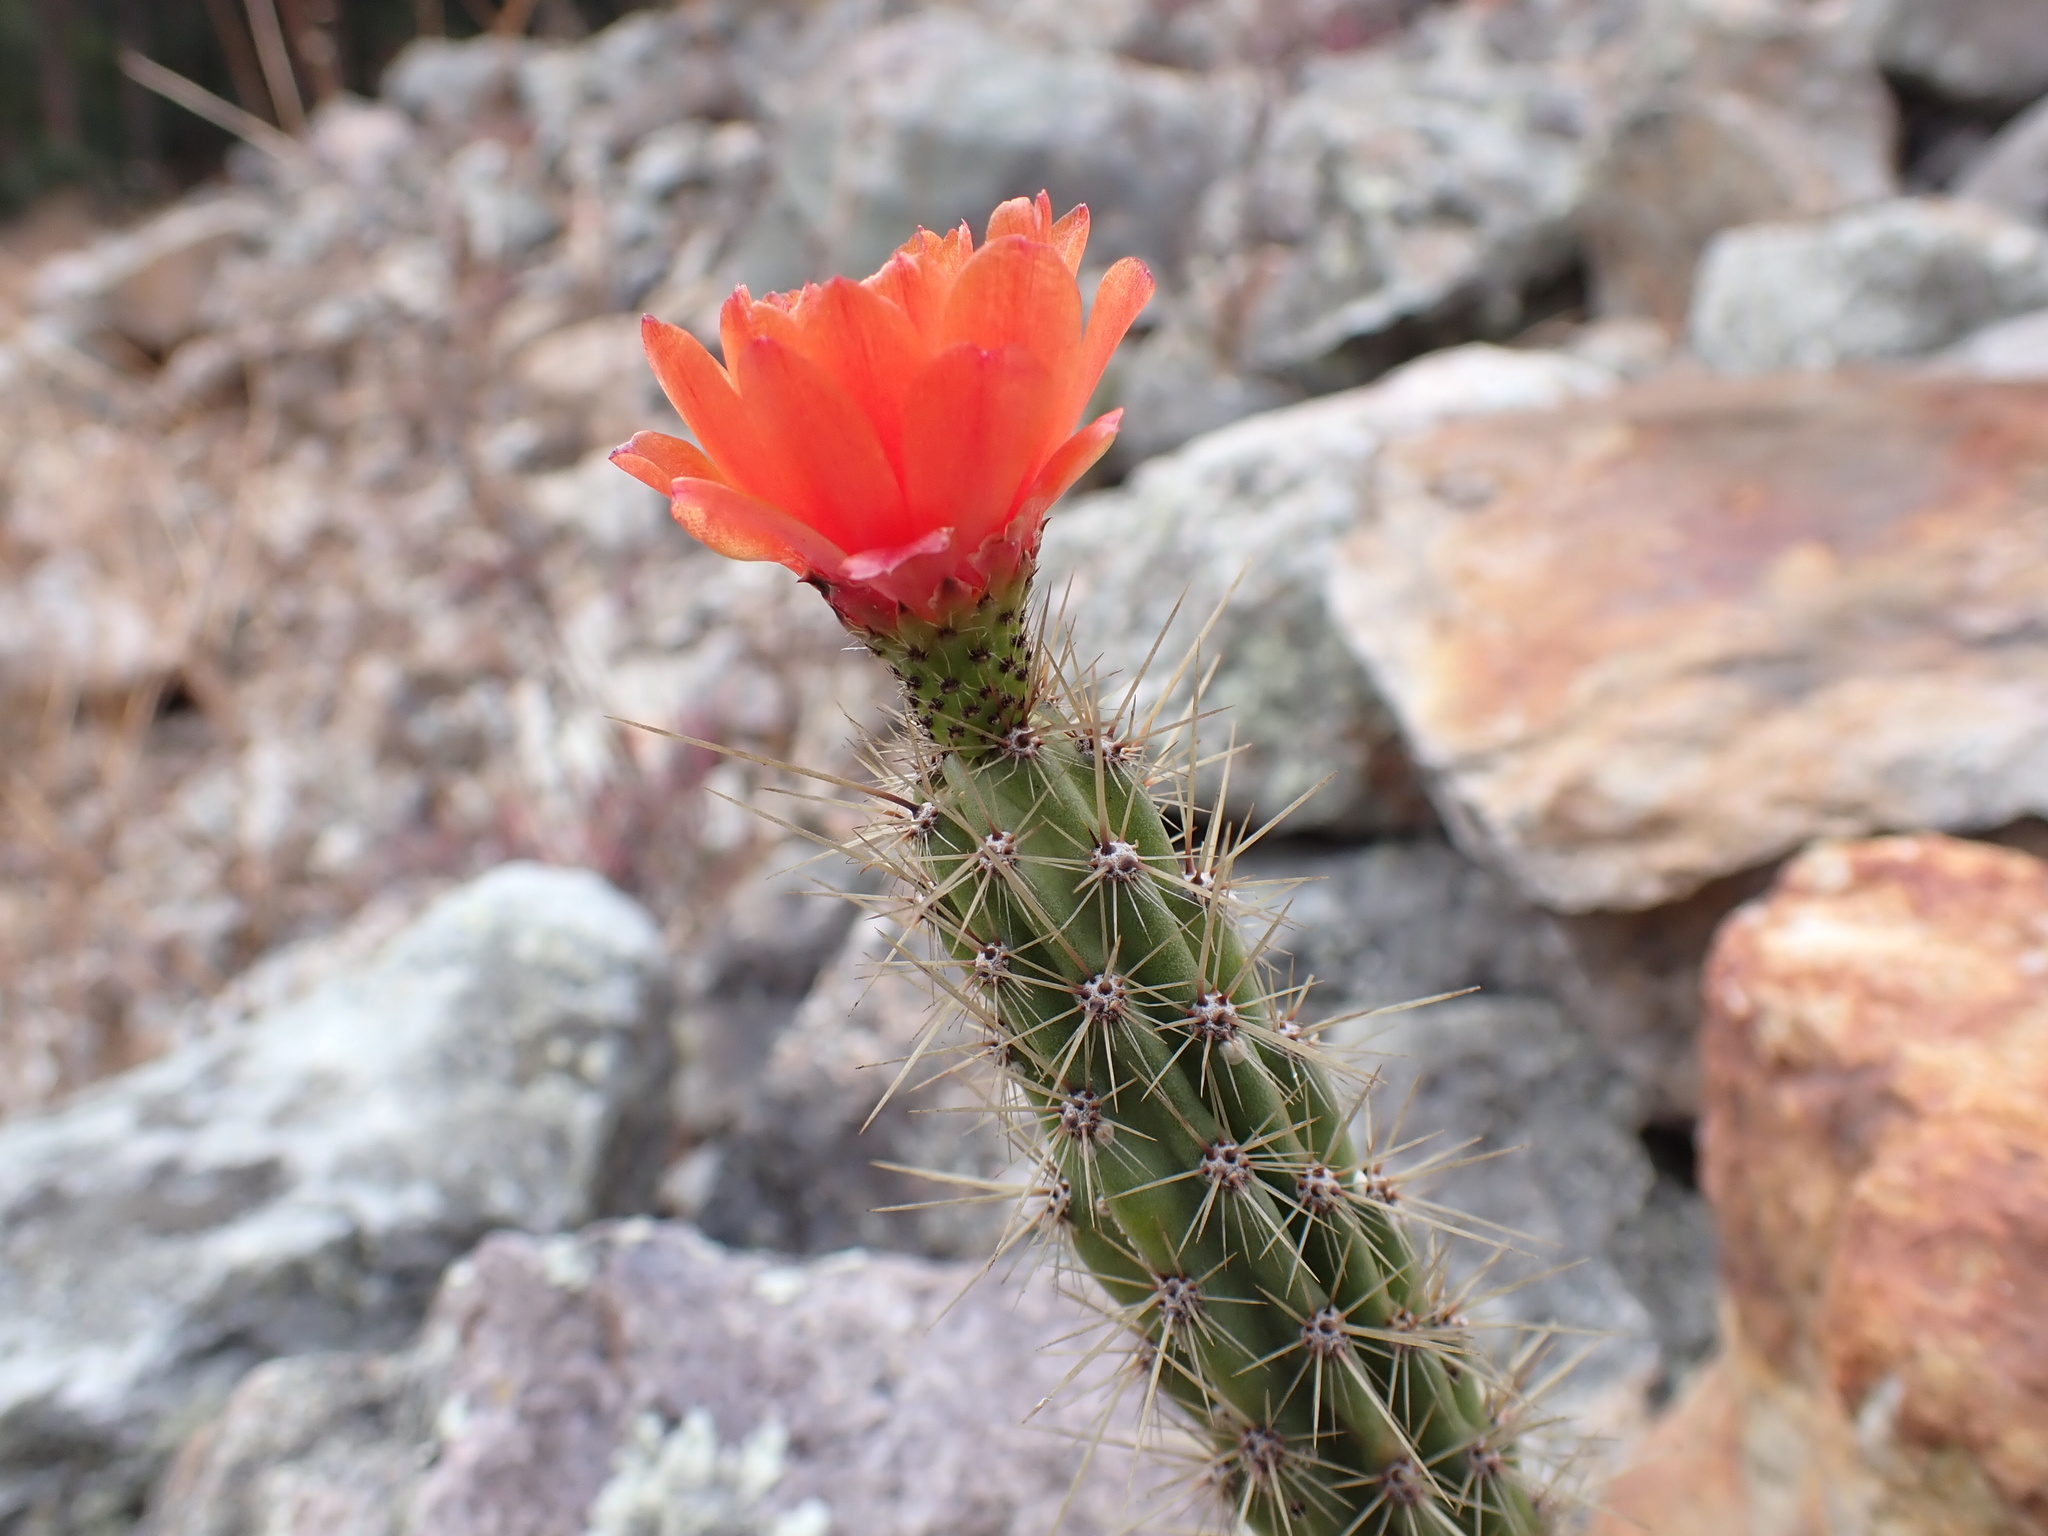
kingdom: Plantae
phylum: Tracheophyta
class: Magnoliopsida
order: Caryophyllales
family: Cactaceae
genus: Corryocactus
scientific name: Corryocactus erectus
